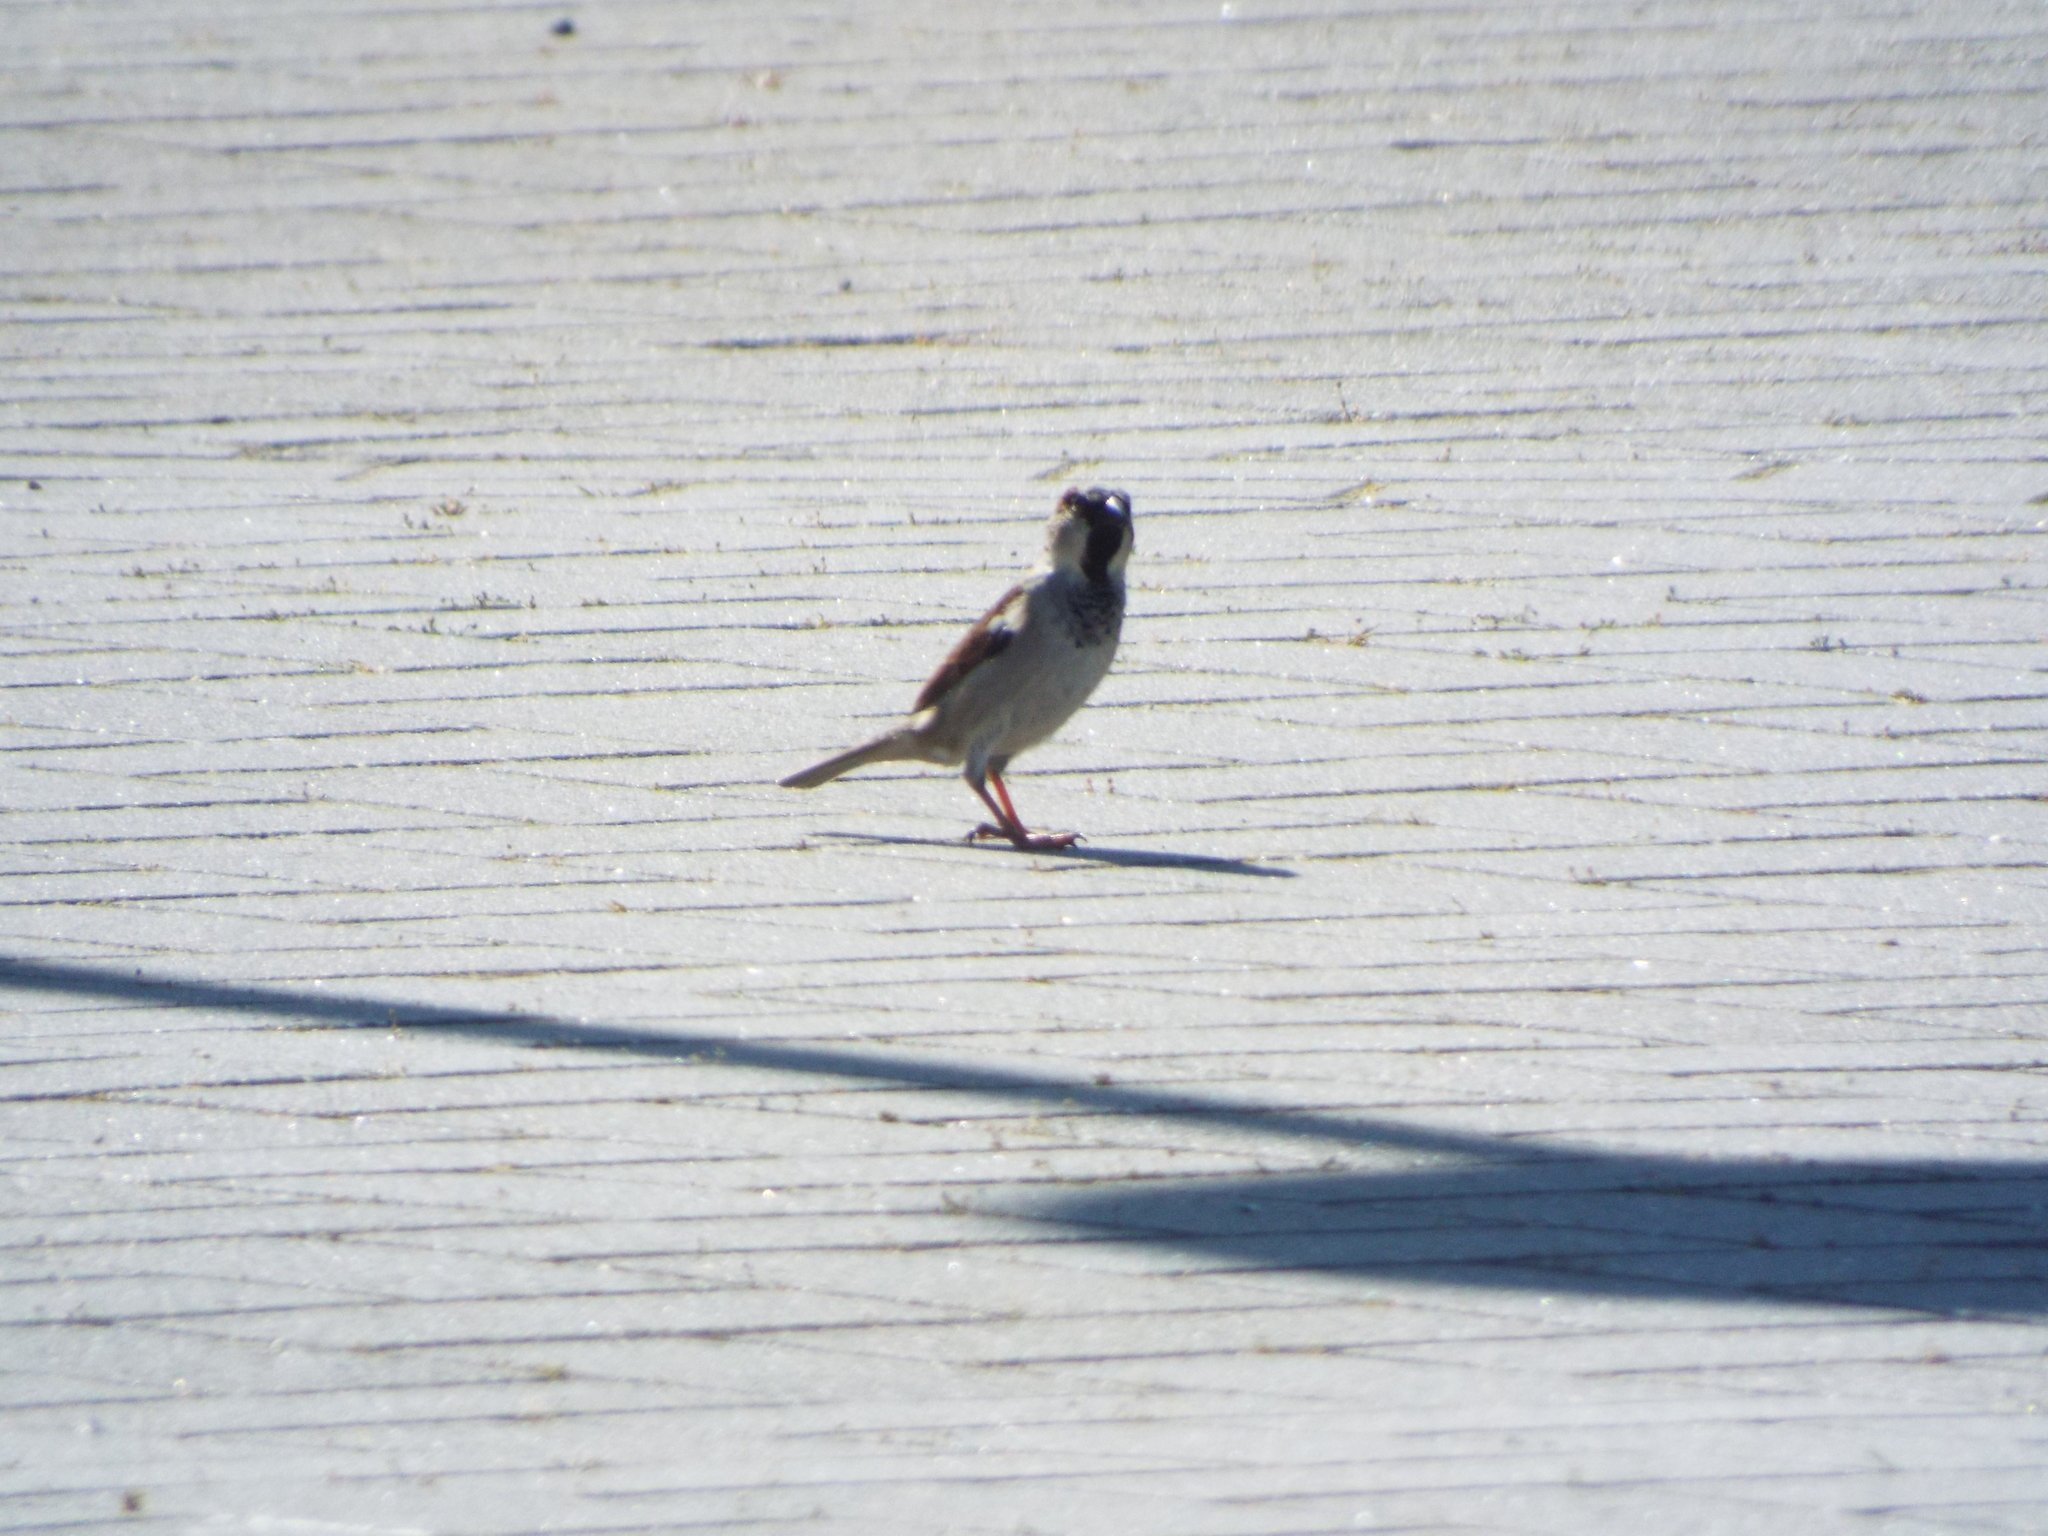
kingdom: Animalia
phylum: Chordata
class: Aves
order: Passeriformes
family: Passeridae
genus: Passer
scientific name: Passer domesticus
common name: House sparrow
